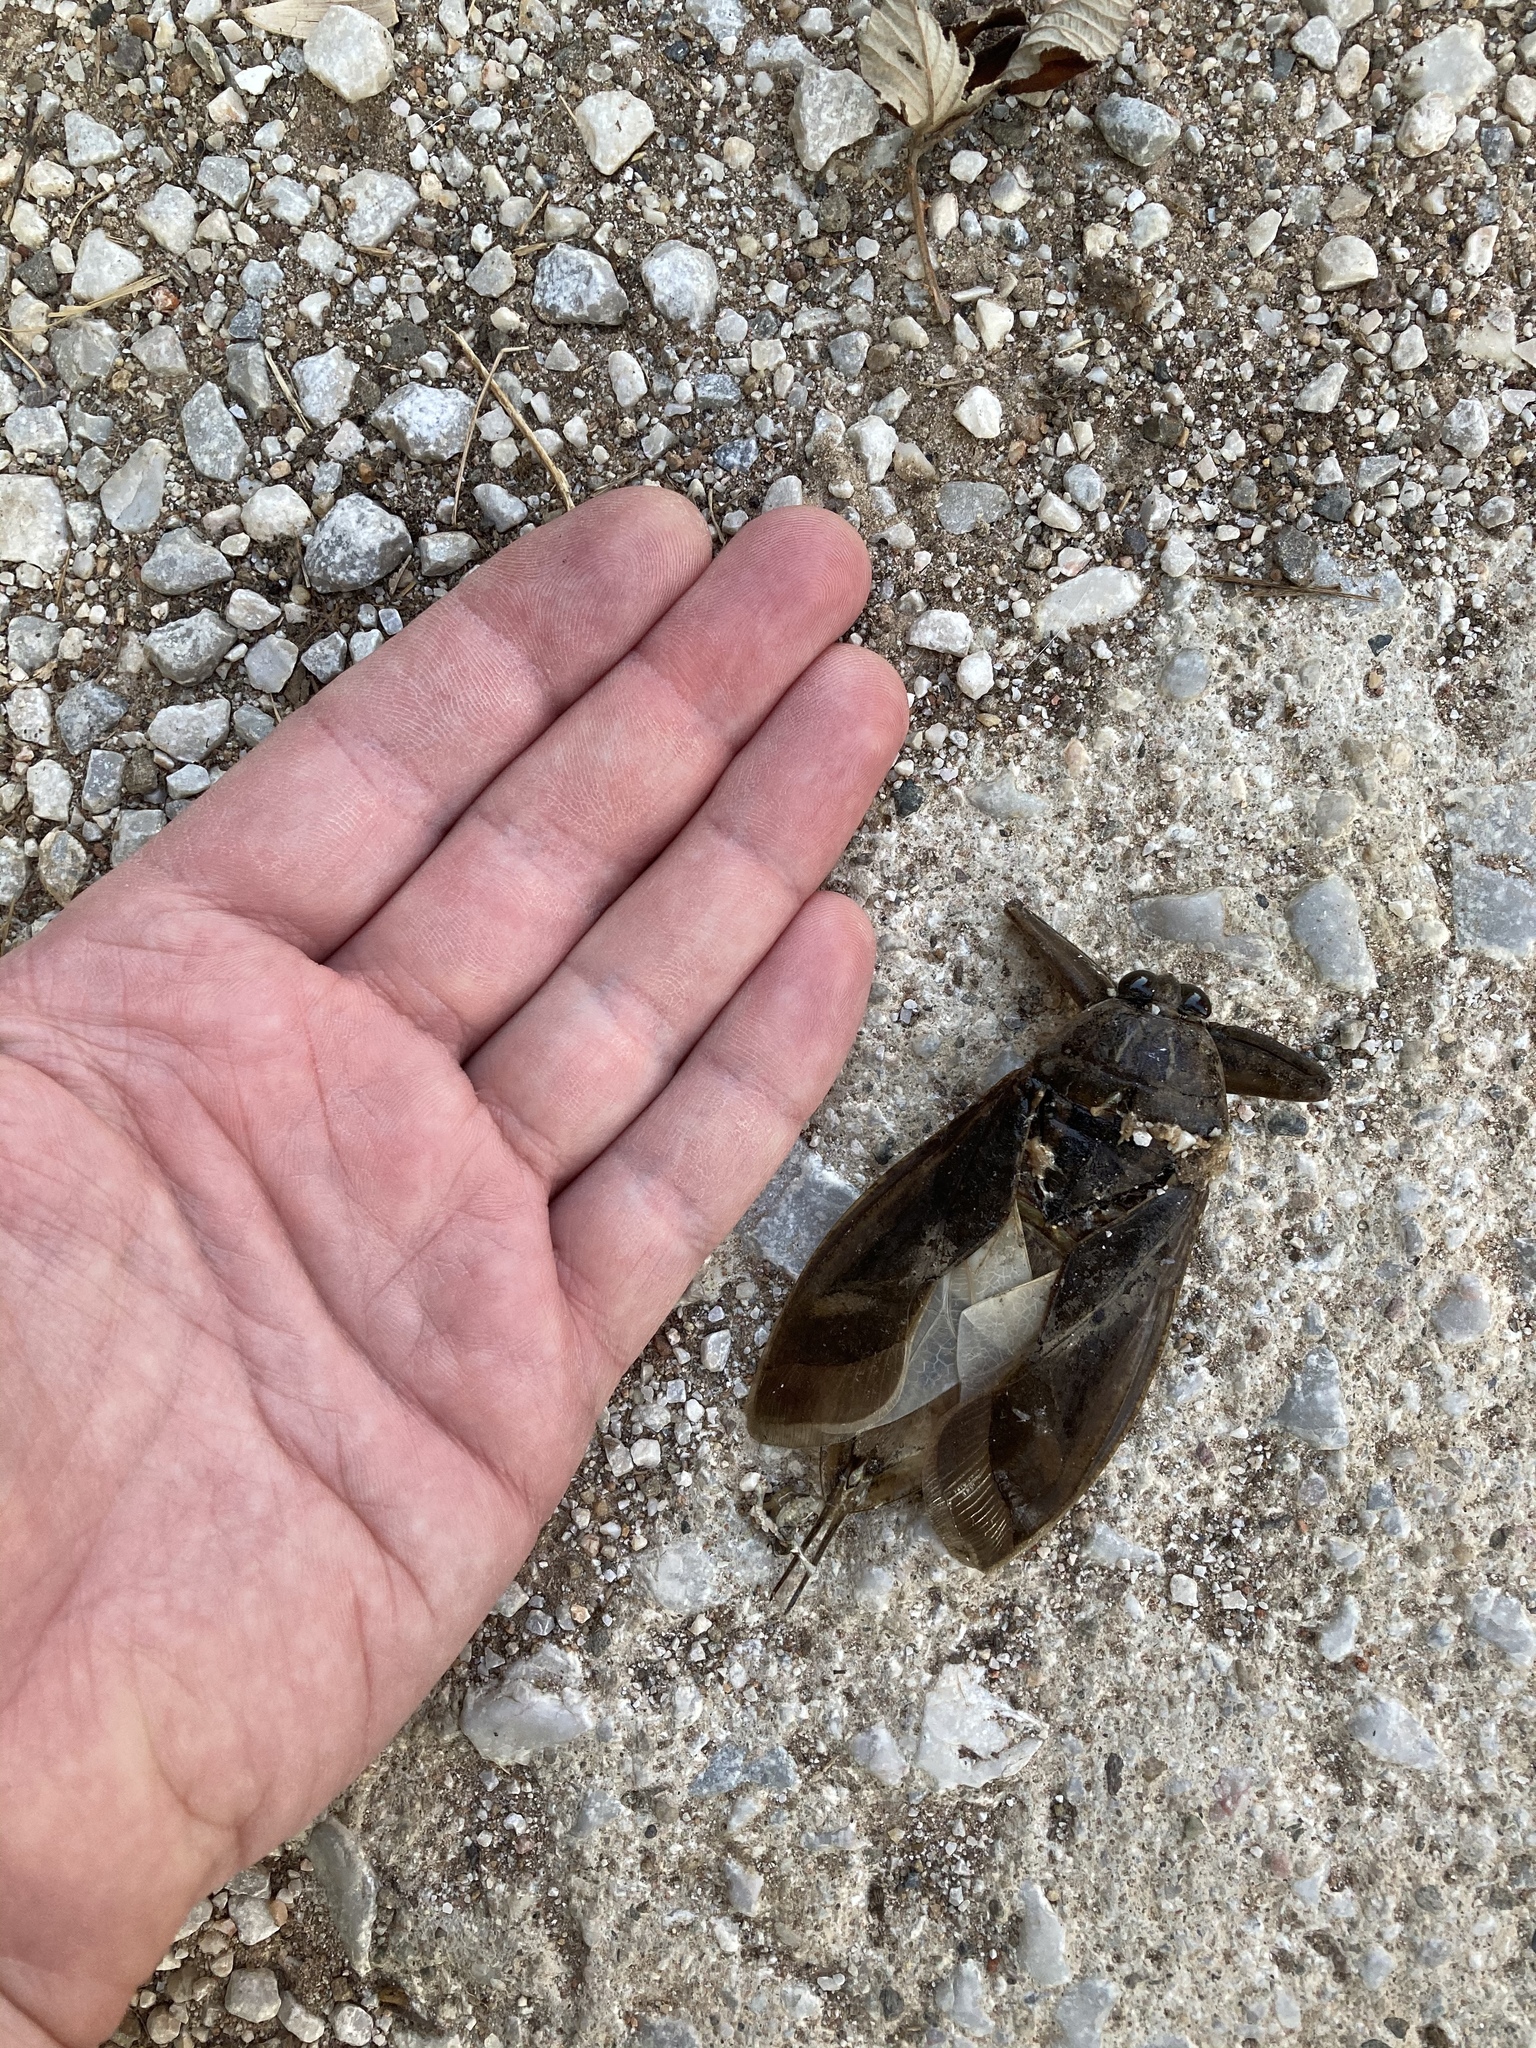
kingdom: Animalia
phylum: Arthropoda
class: Insecta
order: Hemiptera
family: Belostomatidae
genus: Lethocerus
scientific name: Lethocerus patruelis
